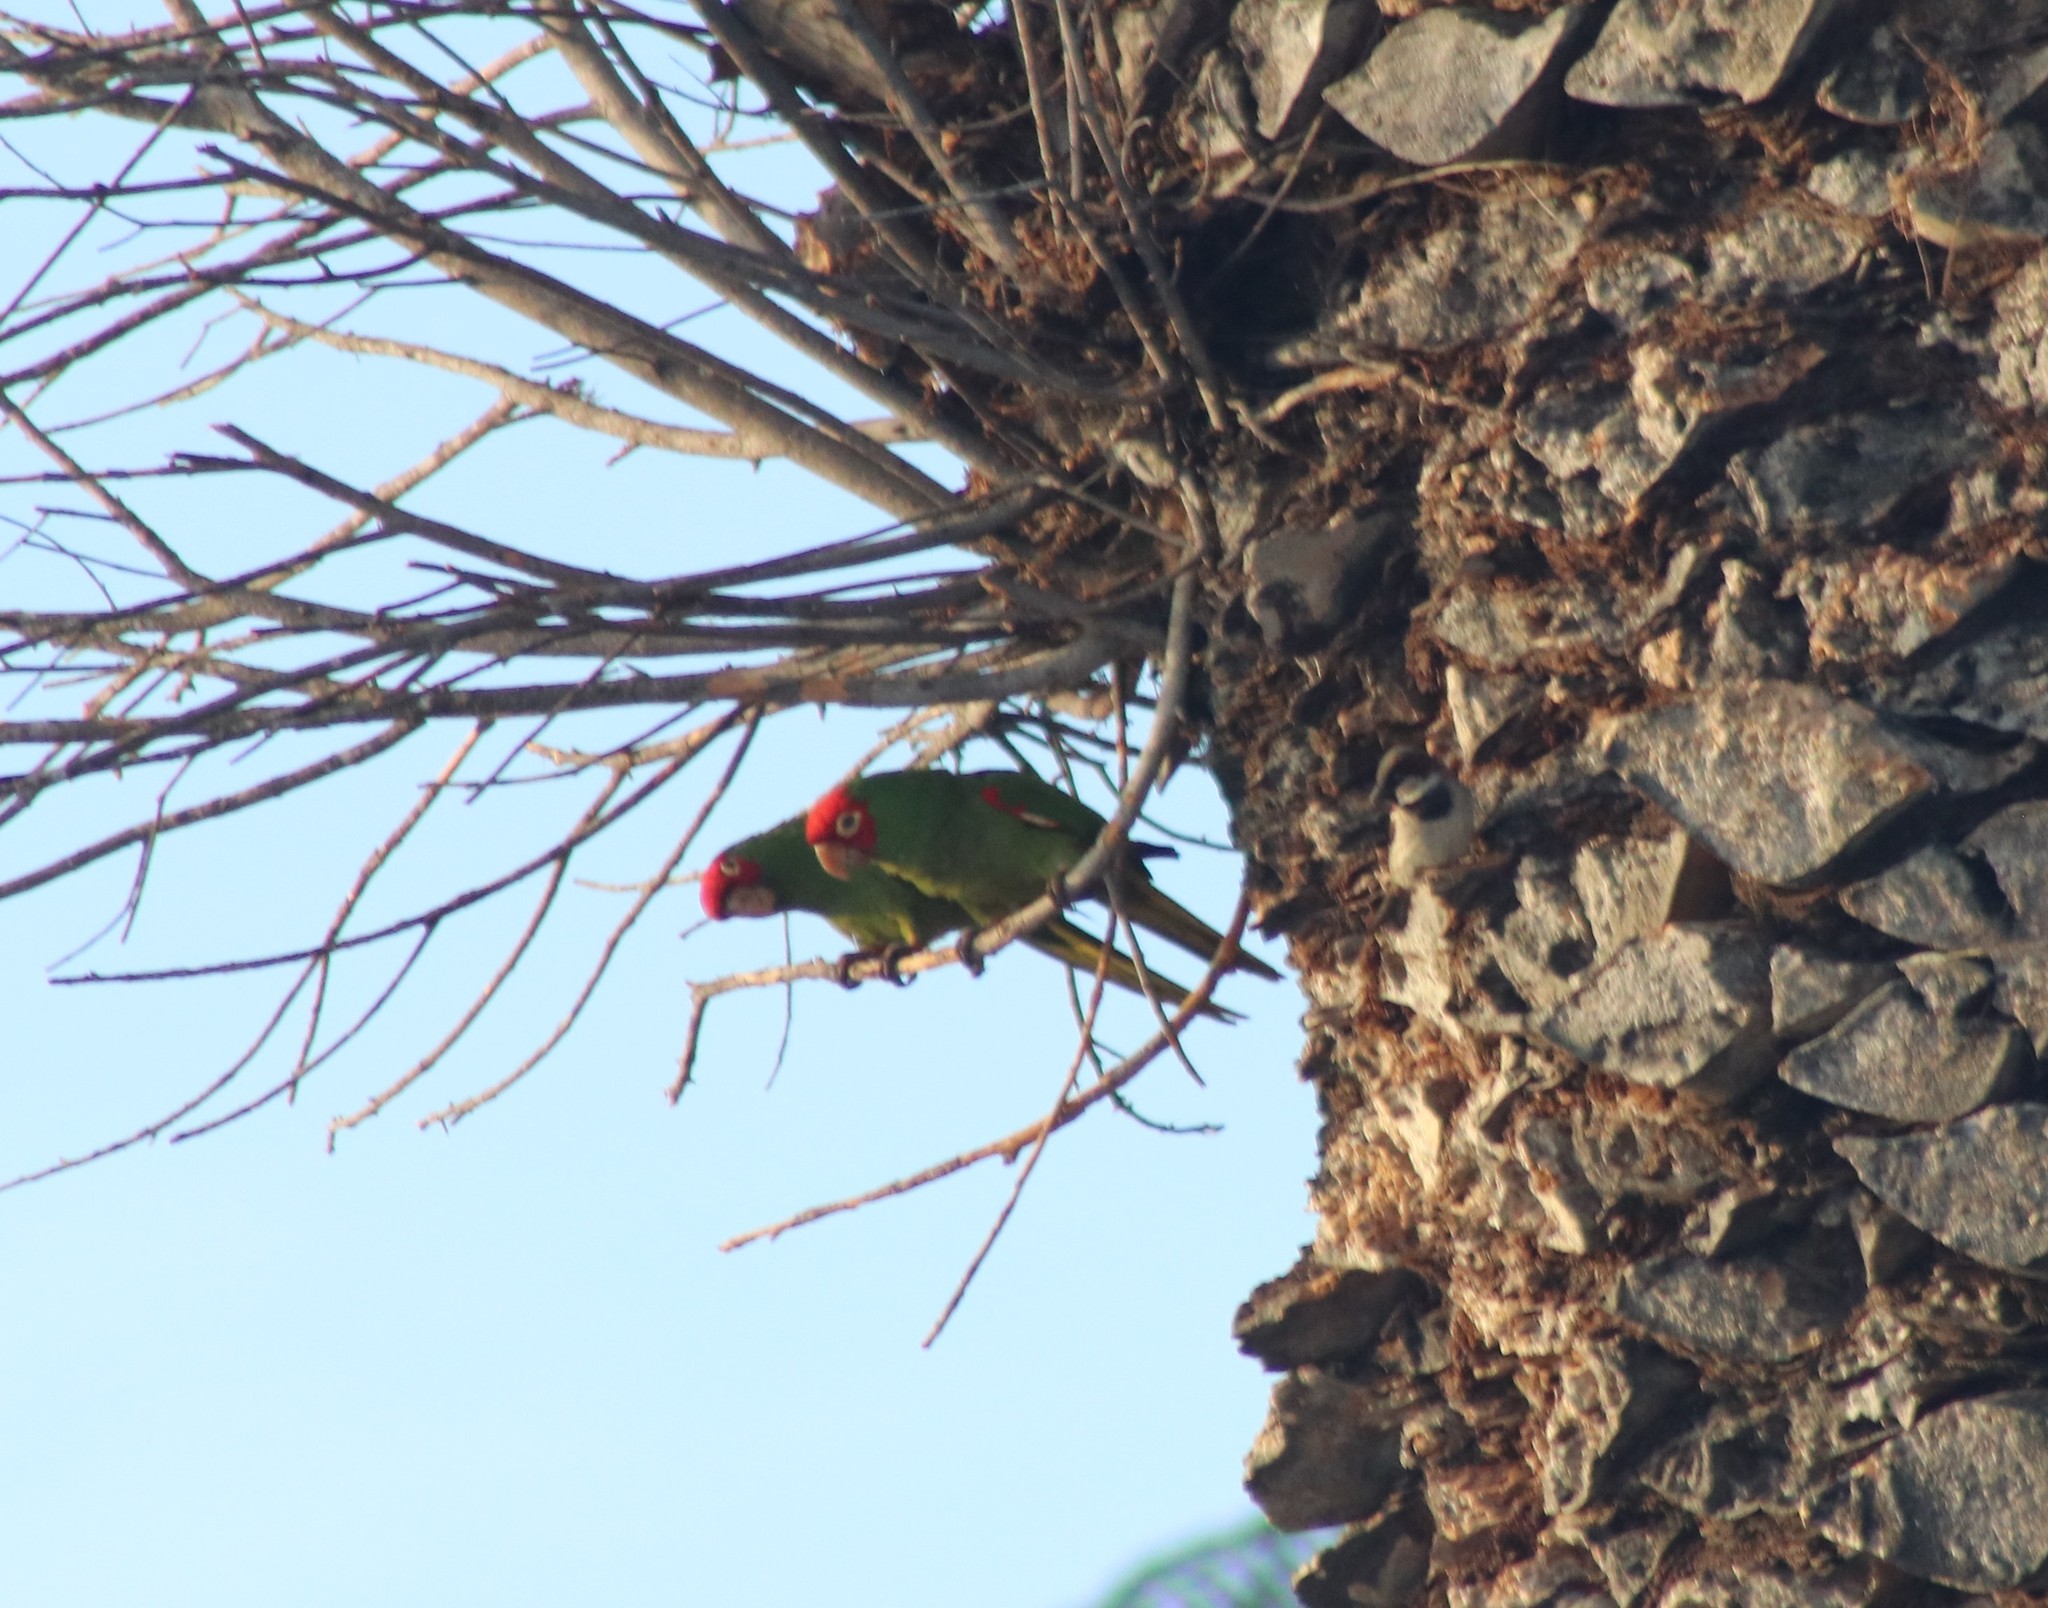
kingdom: Animalia
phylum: Chordata
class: Aves
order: Psittaciformes
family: Psittacidae
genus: Aratinga
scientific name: Aratinga erythrogenys
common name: Red-masked parakeet
